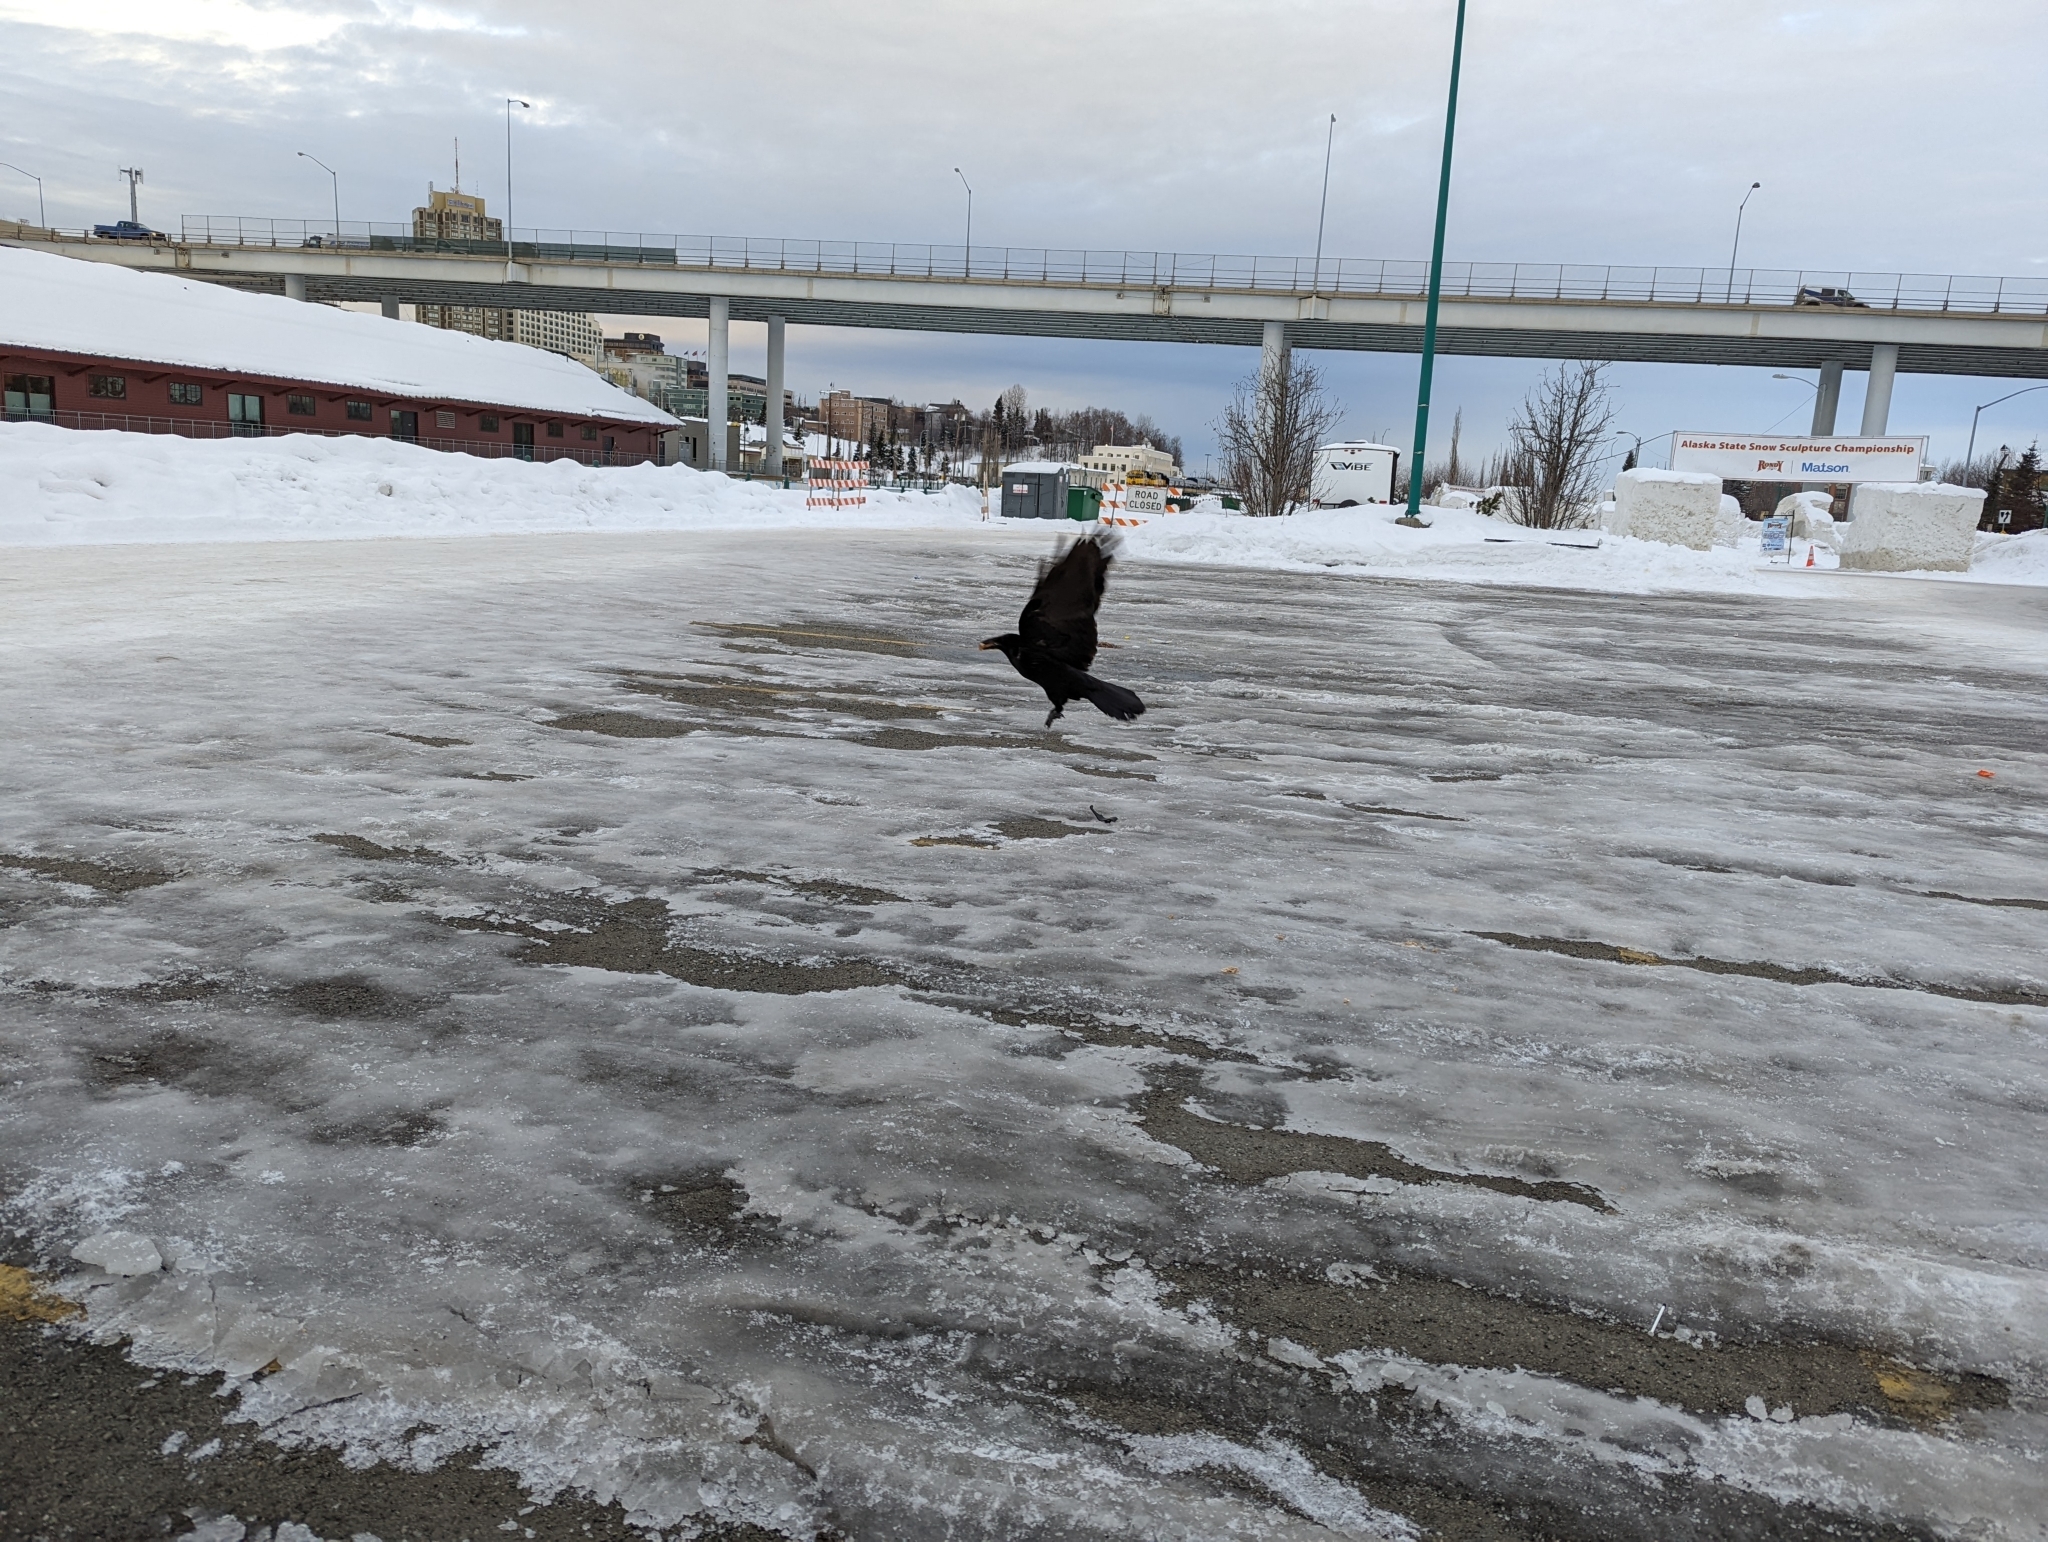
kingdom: Animalia
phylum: Chordata
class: Aves
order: Passeriformes
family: Corvidae
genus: Corvus
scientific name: Corvus corax
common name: Common raven
